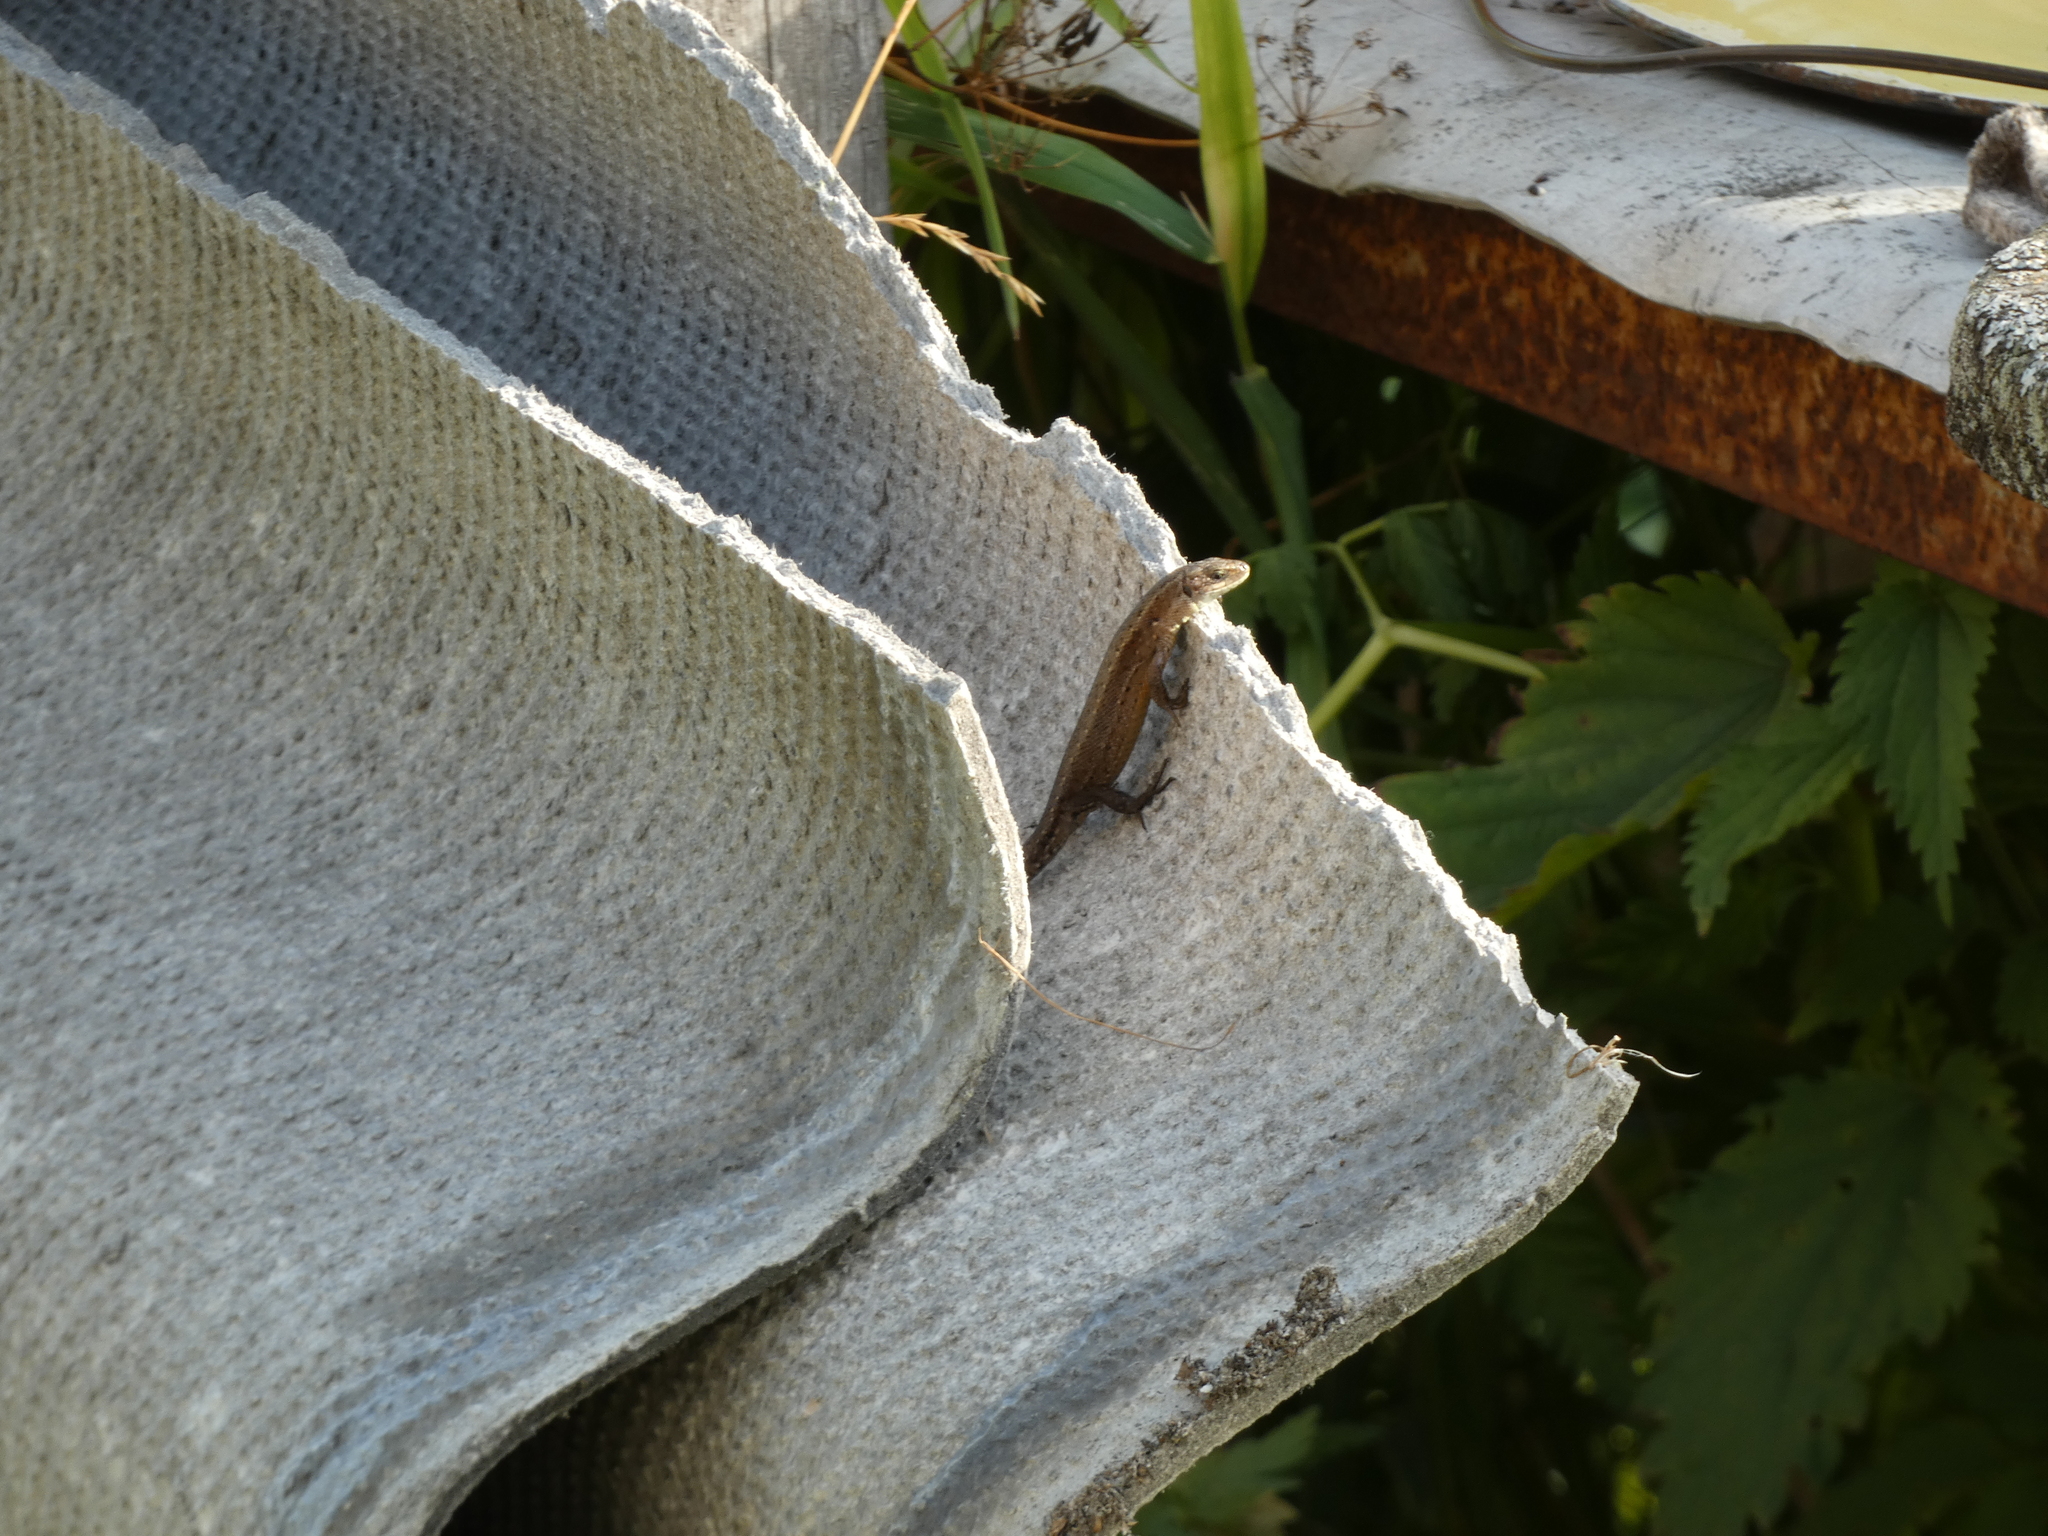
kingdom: Animalia
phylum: Chordata
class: Squamata
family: Lacertidae
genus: Zootoca
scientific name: Zootoca vivipara
